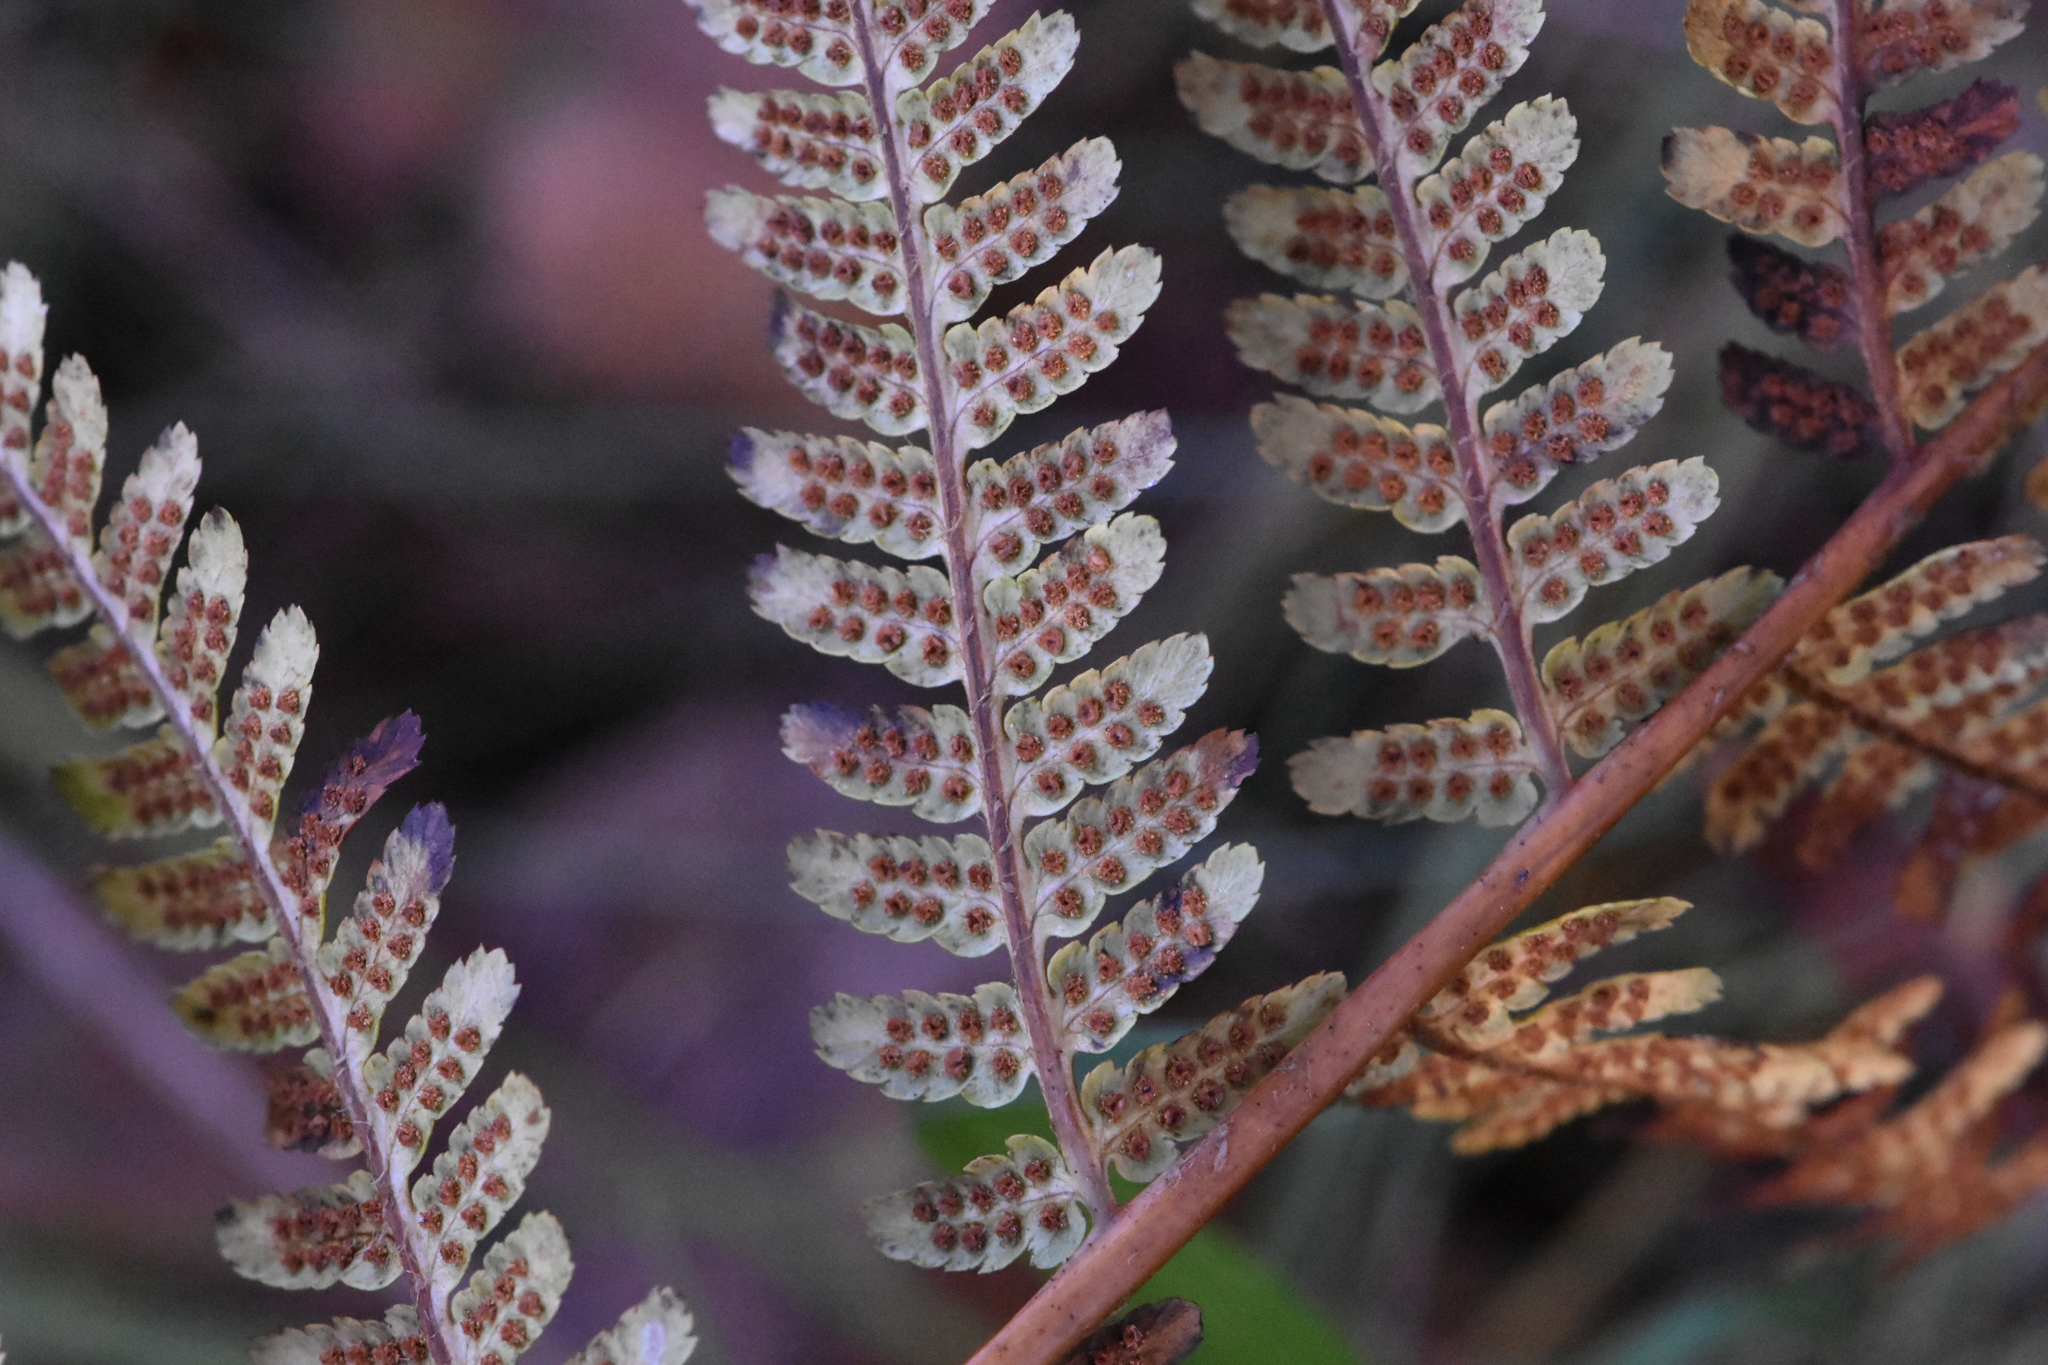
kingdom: Plantae
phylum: Tracheophyta
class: Polypodiopsida
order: Polypodiales
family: Dryopteridaceae
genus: Dryopteris
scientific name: Dryopteris filix-mas
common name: Male fern
